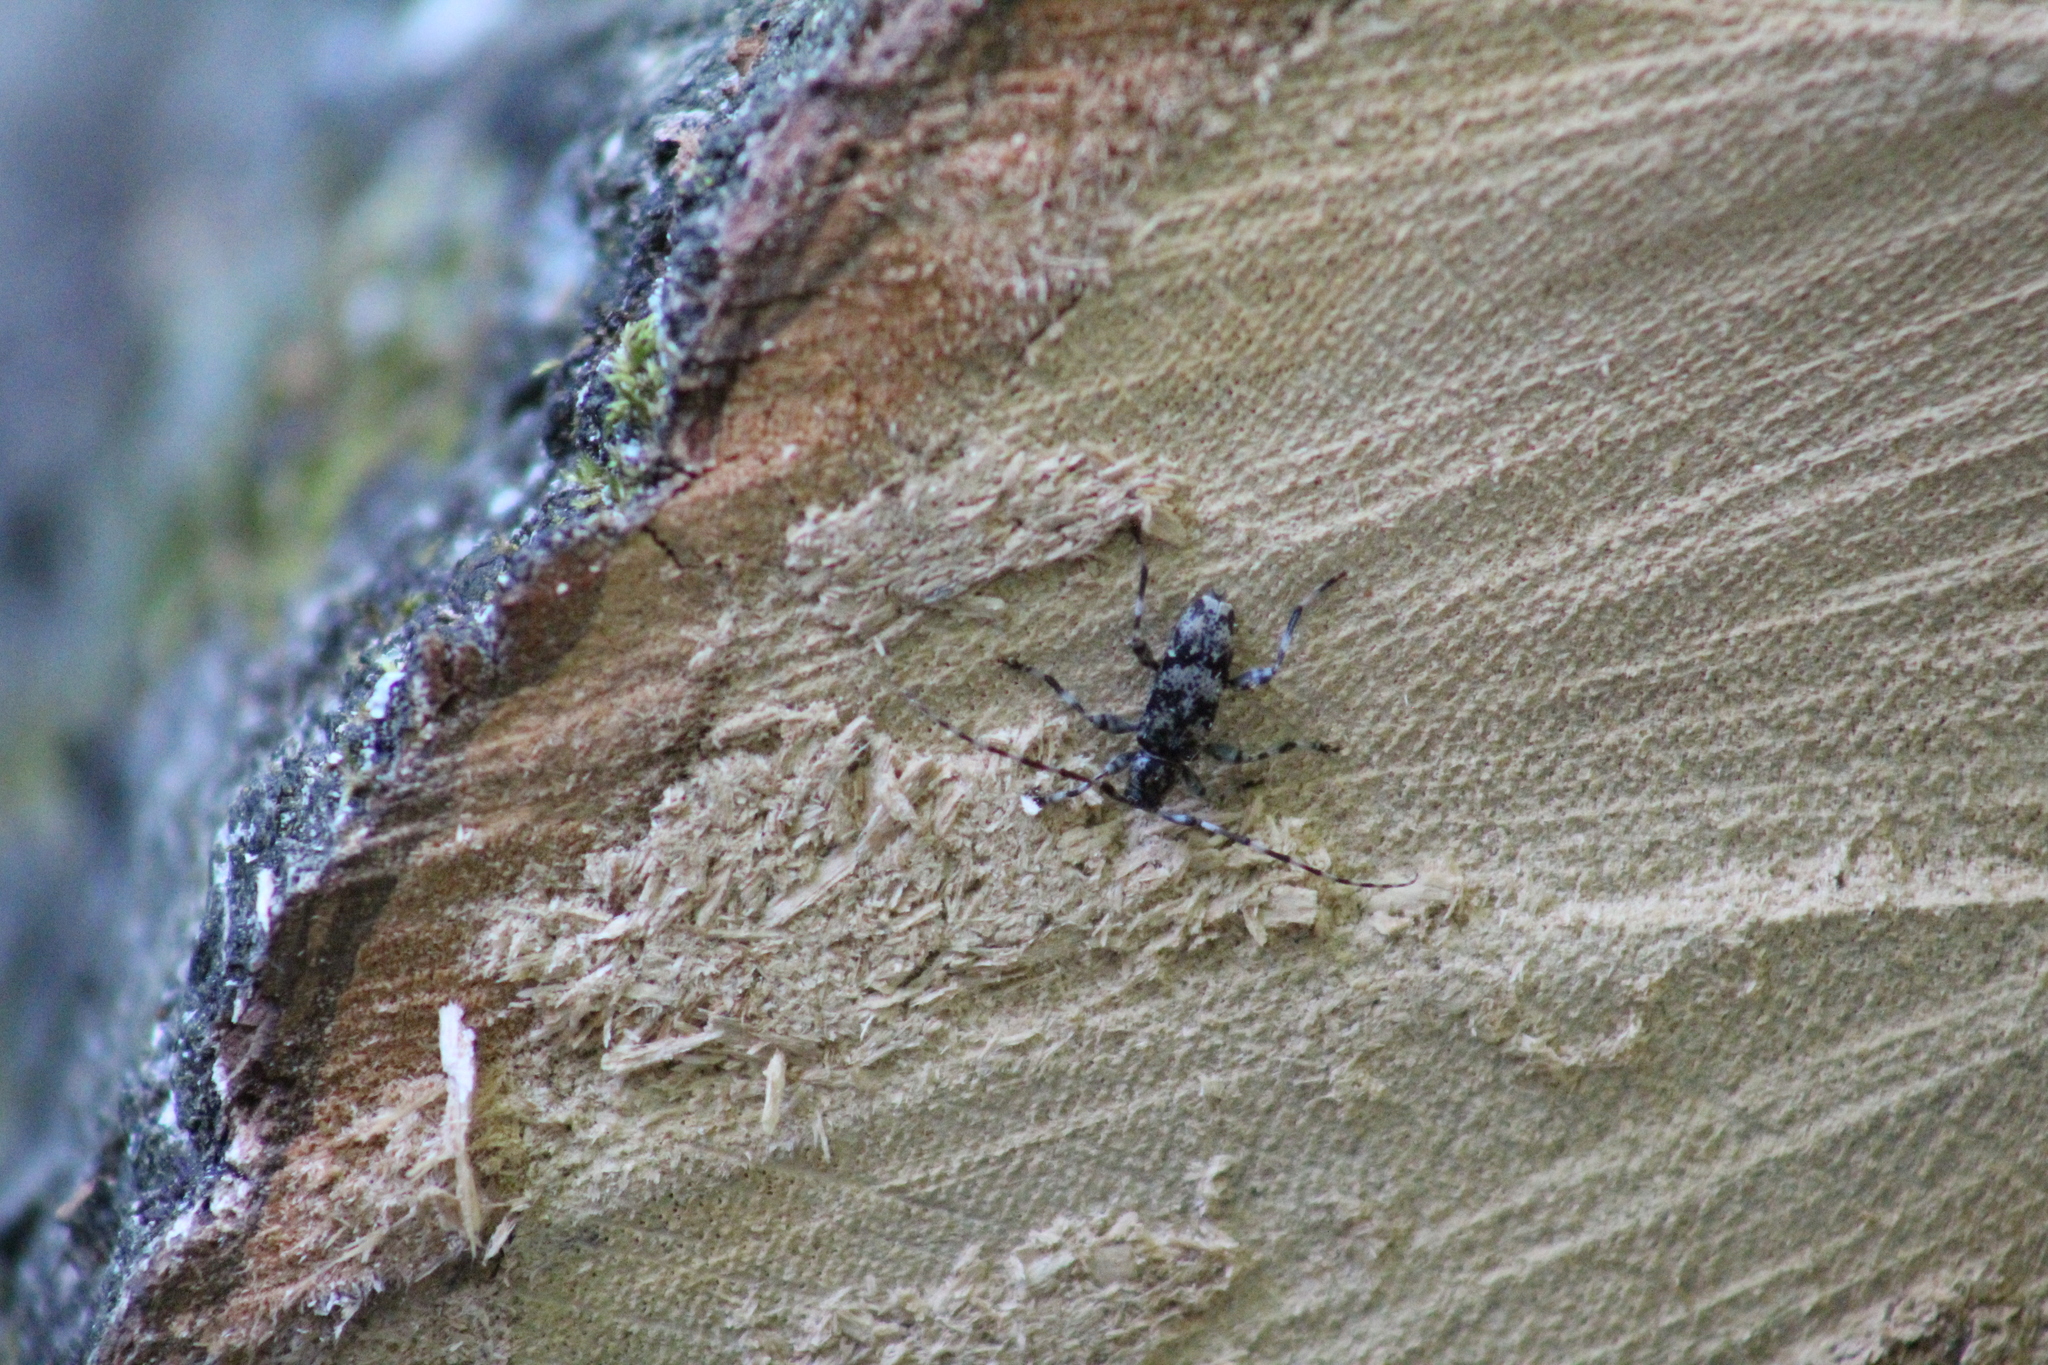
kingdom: Animalia
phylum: Arthropoda
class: Insecta
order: Coleoptera
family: Cerambycidae
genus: Graphisurus
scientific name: Graphisurus fasciatus
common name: Banded graphisurus
